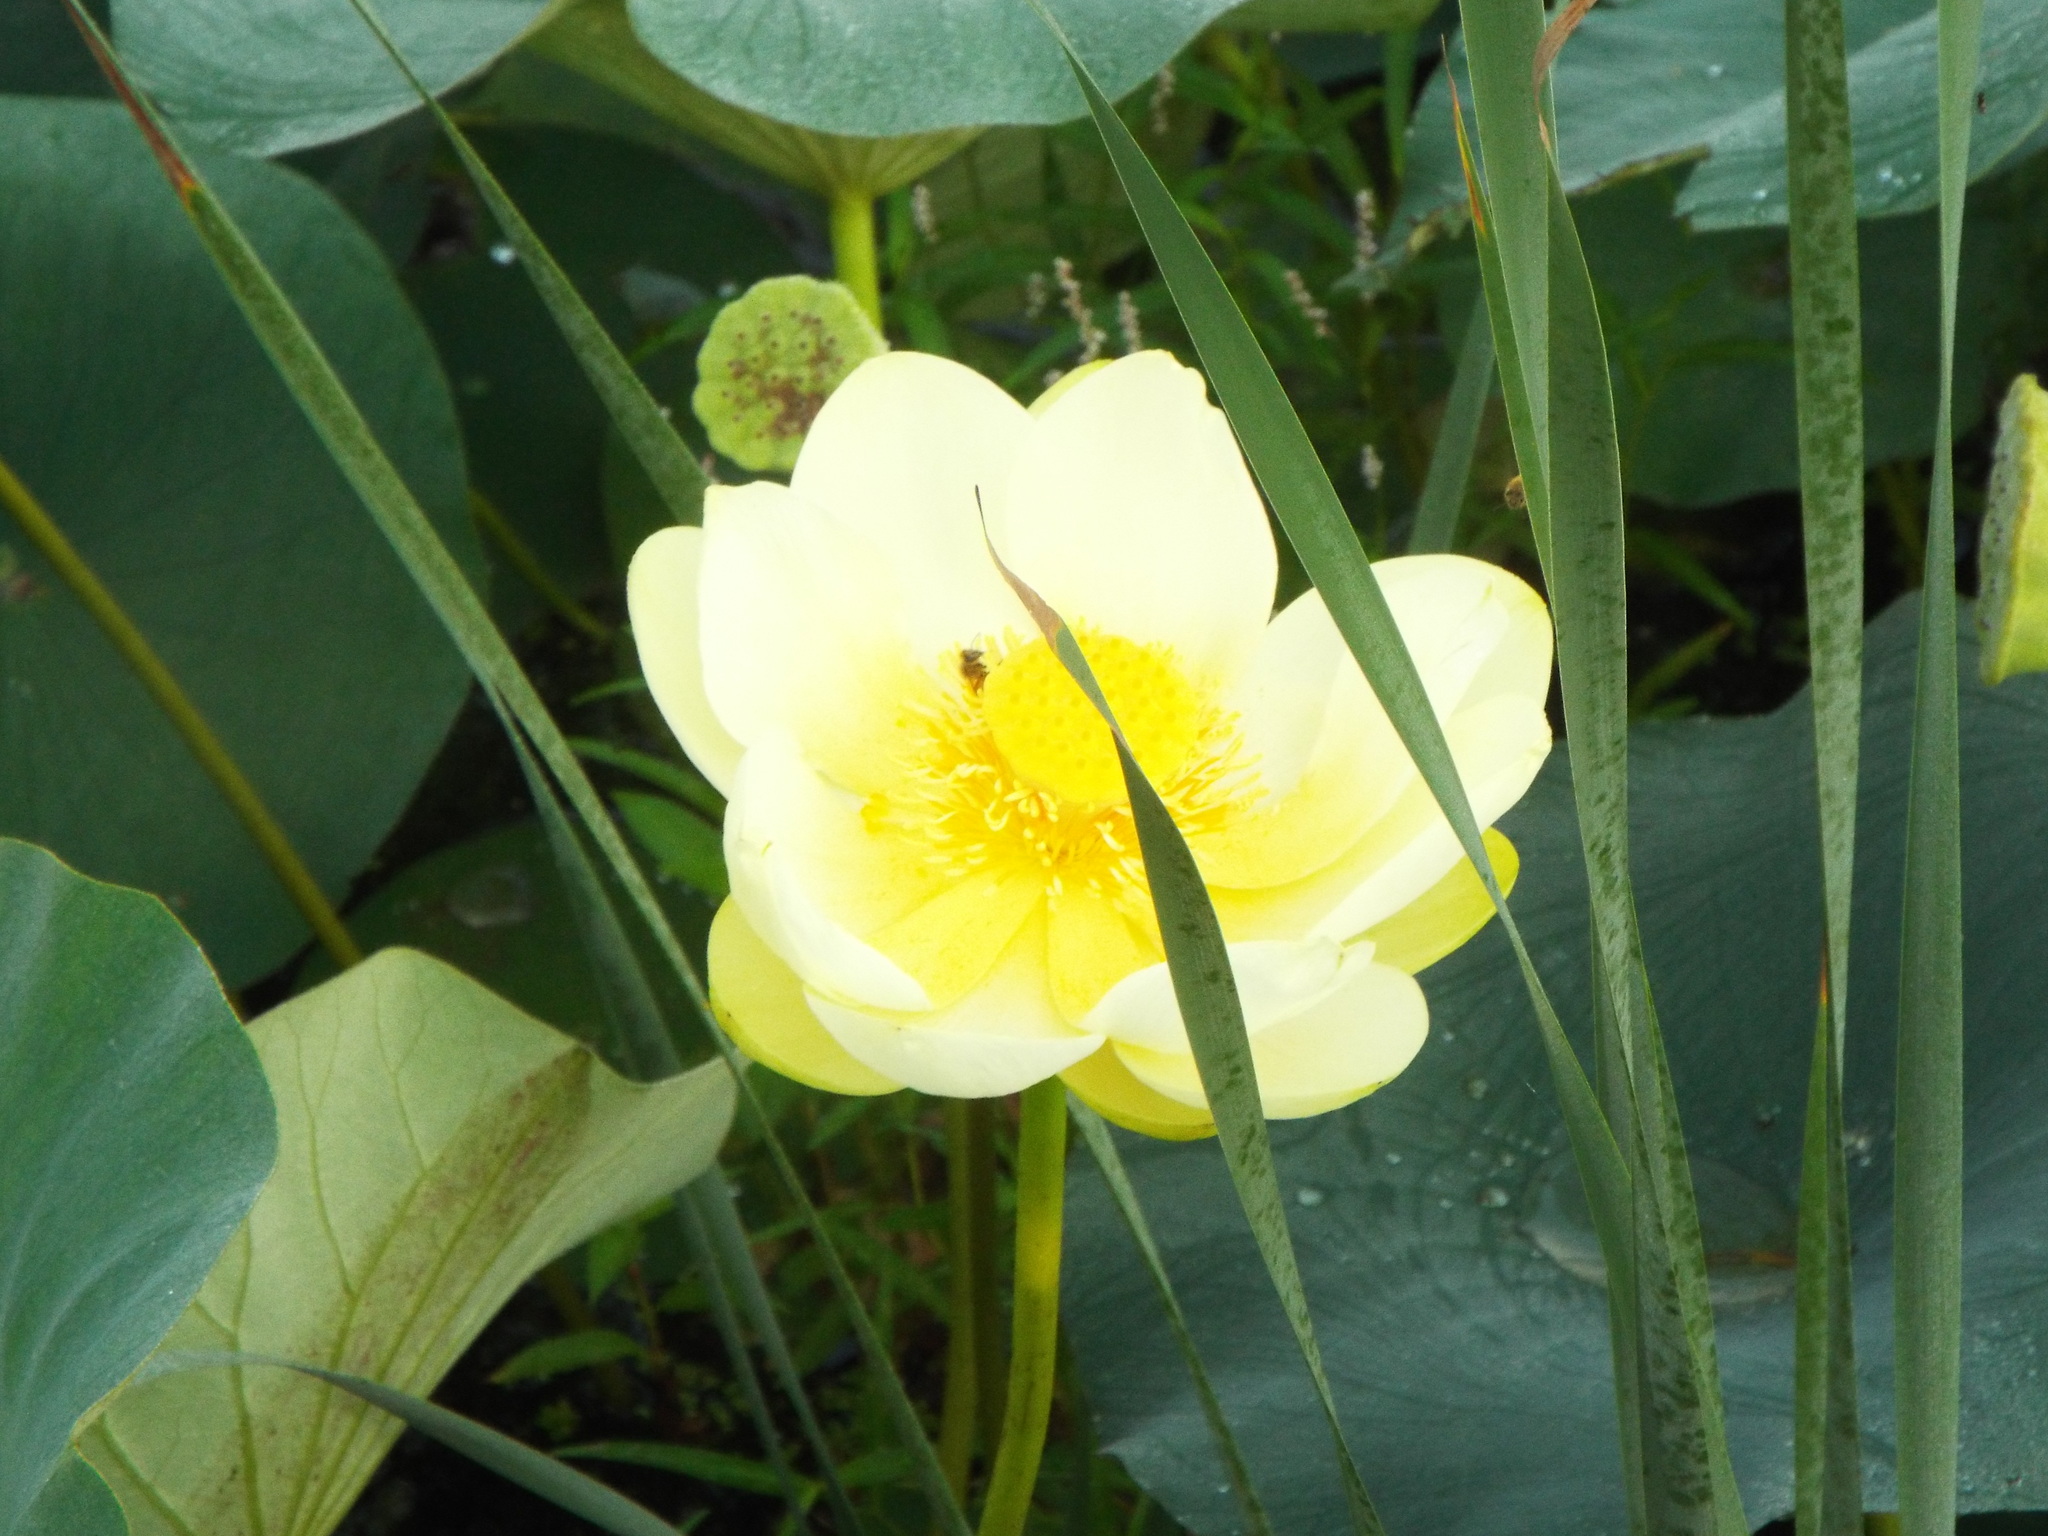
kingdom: Plantae
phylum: Tracheophyta
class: Magnoliopsida
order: Proteales
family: Nelumbonaceae
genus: Nelumbo
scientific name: Nelumbo lutea
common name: American lotus
